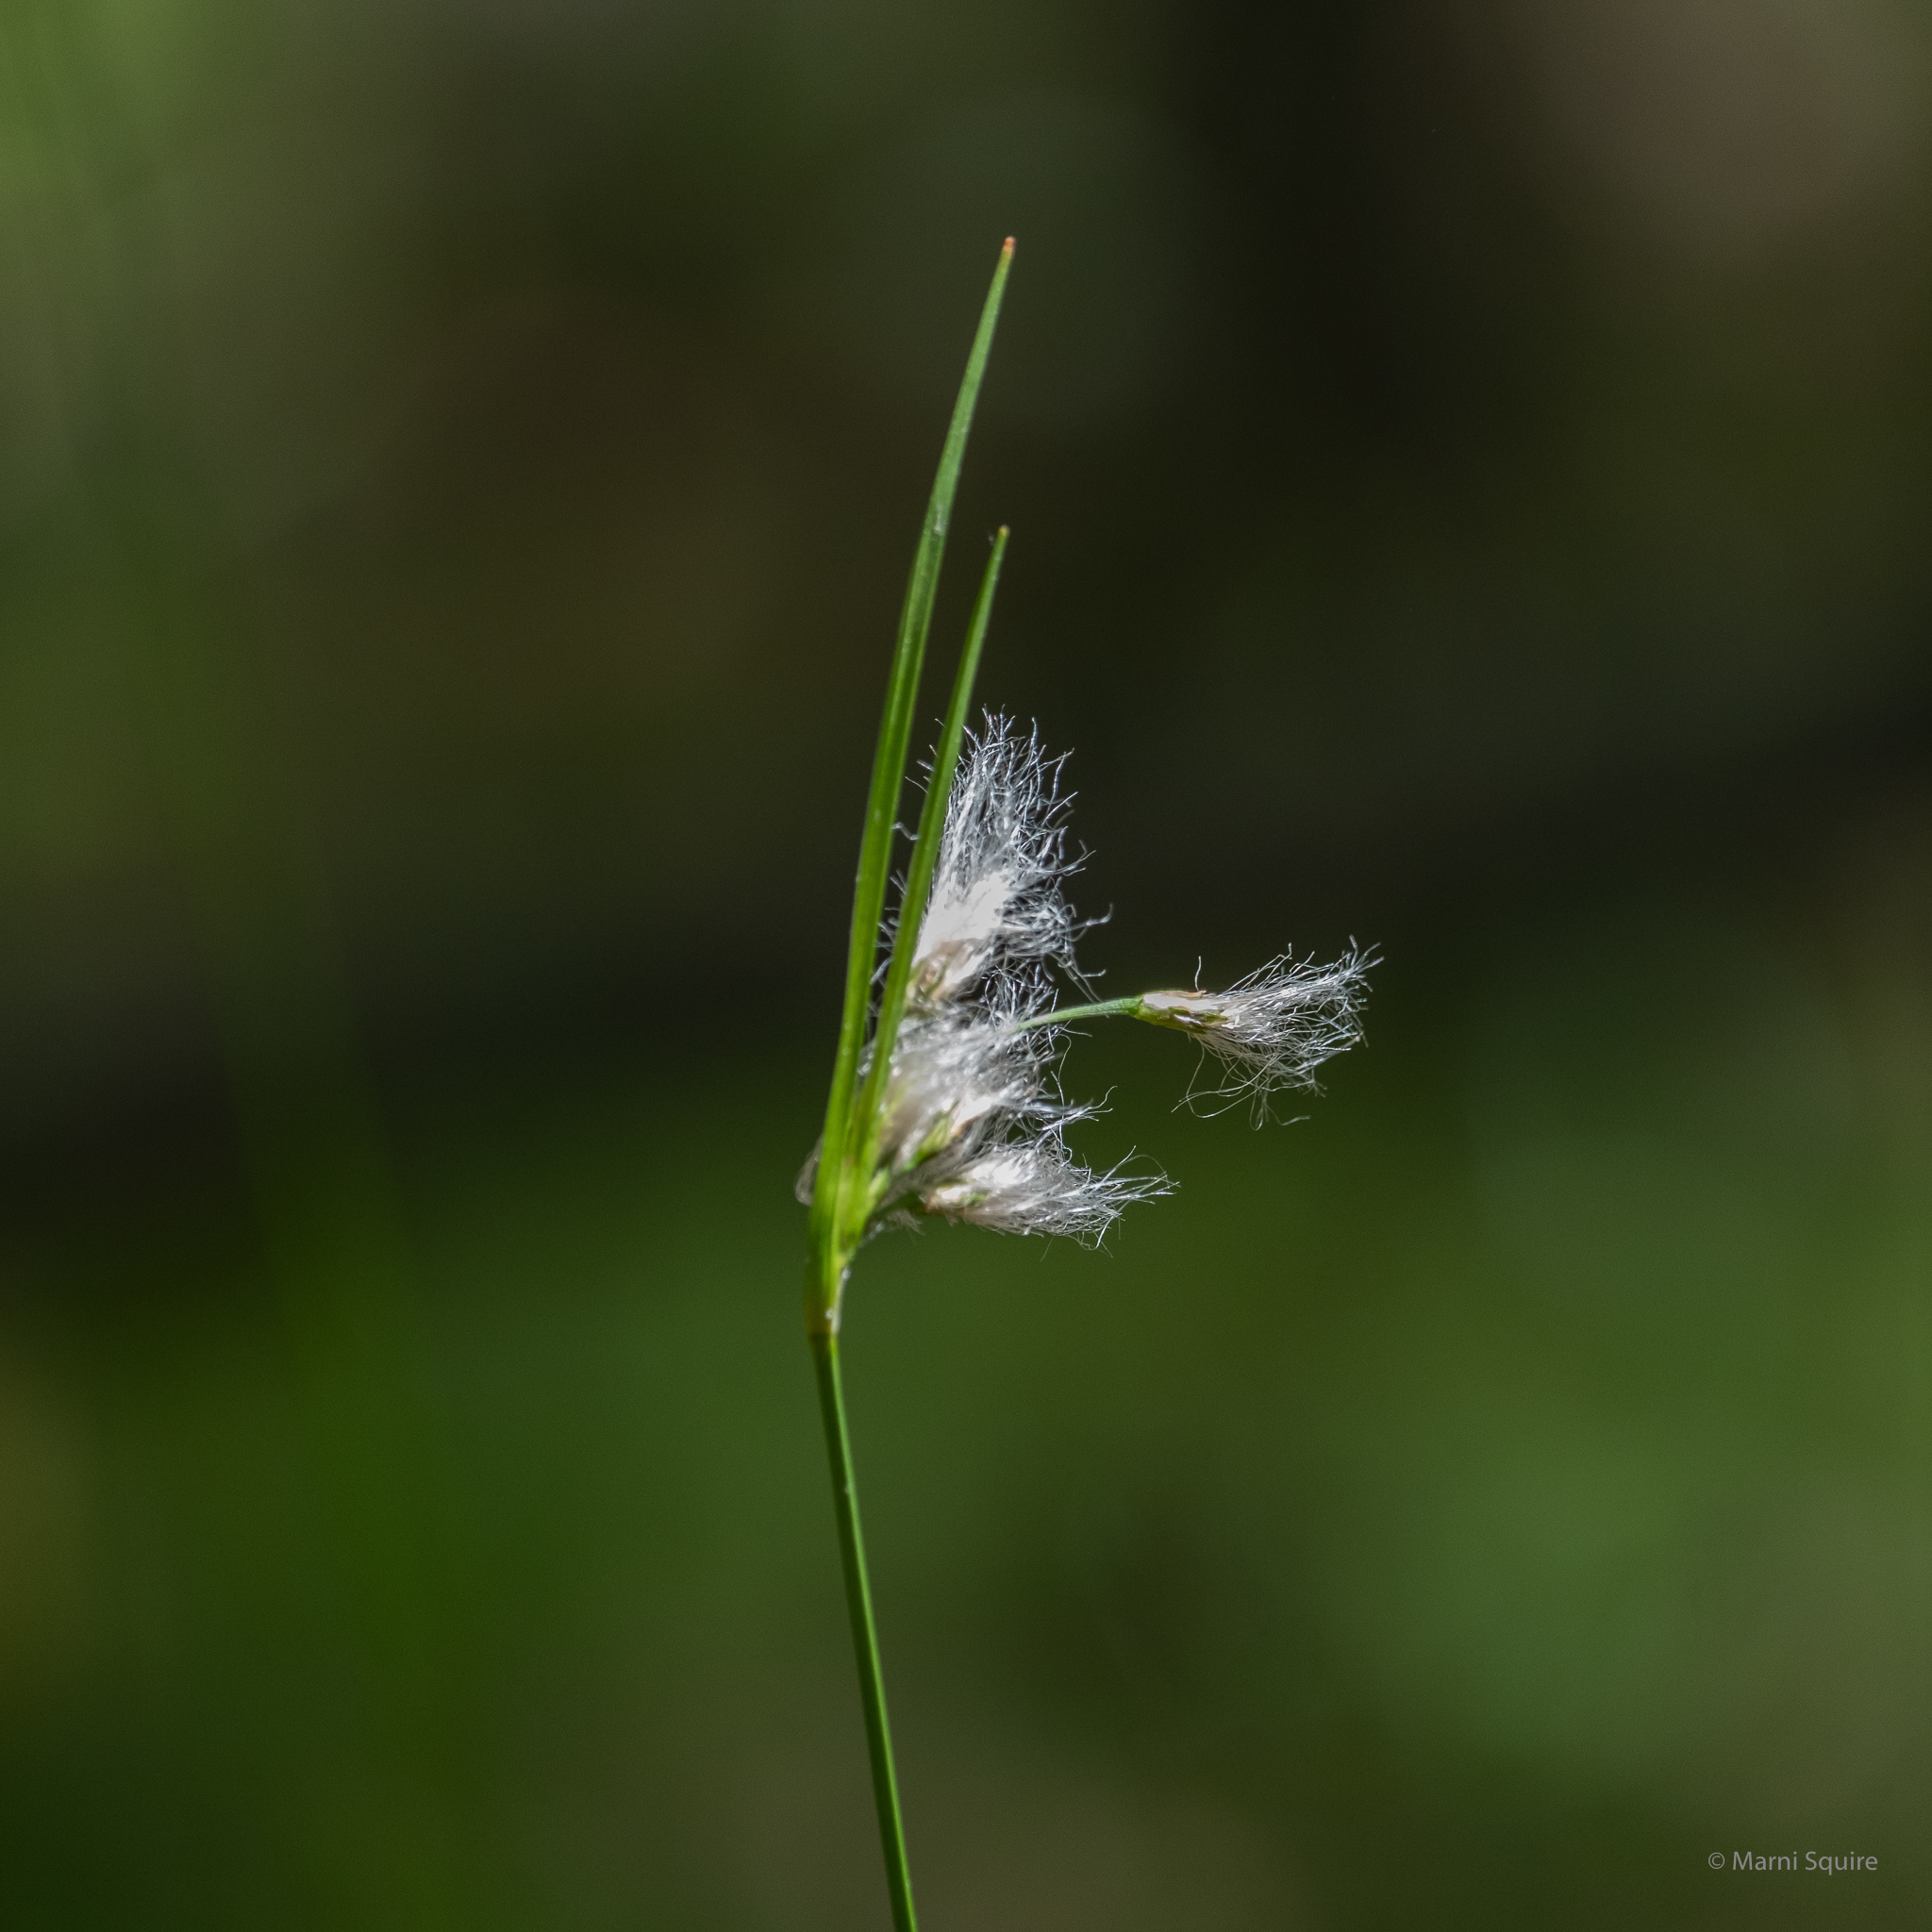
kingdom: Plantae
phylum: Tracheophyta
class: Liliopsida
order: Poales
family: Cyperaceae
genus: Eriophorum
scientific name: Eriophorum viridicarinatum
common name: Green-keeled cottongrass
